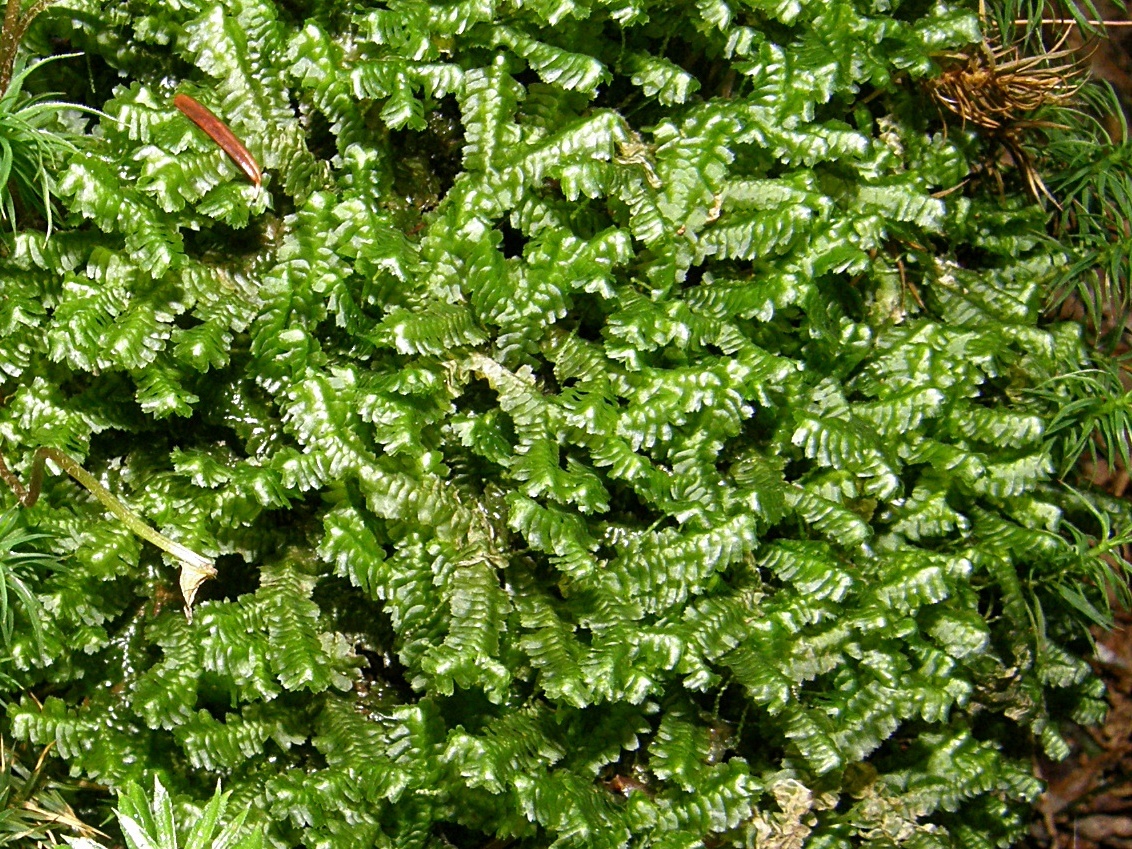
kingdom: Plantae
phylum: Marchantiophyta
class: Jungermanniopsida
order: Jungermanniales
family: Lepidoziaceae
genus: Bazzania
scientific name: Bazzania trilobata
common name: Three-lobed whipwort
